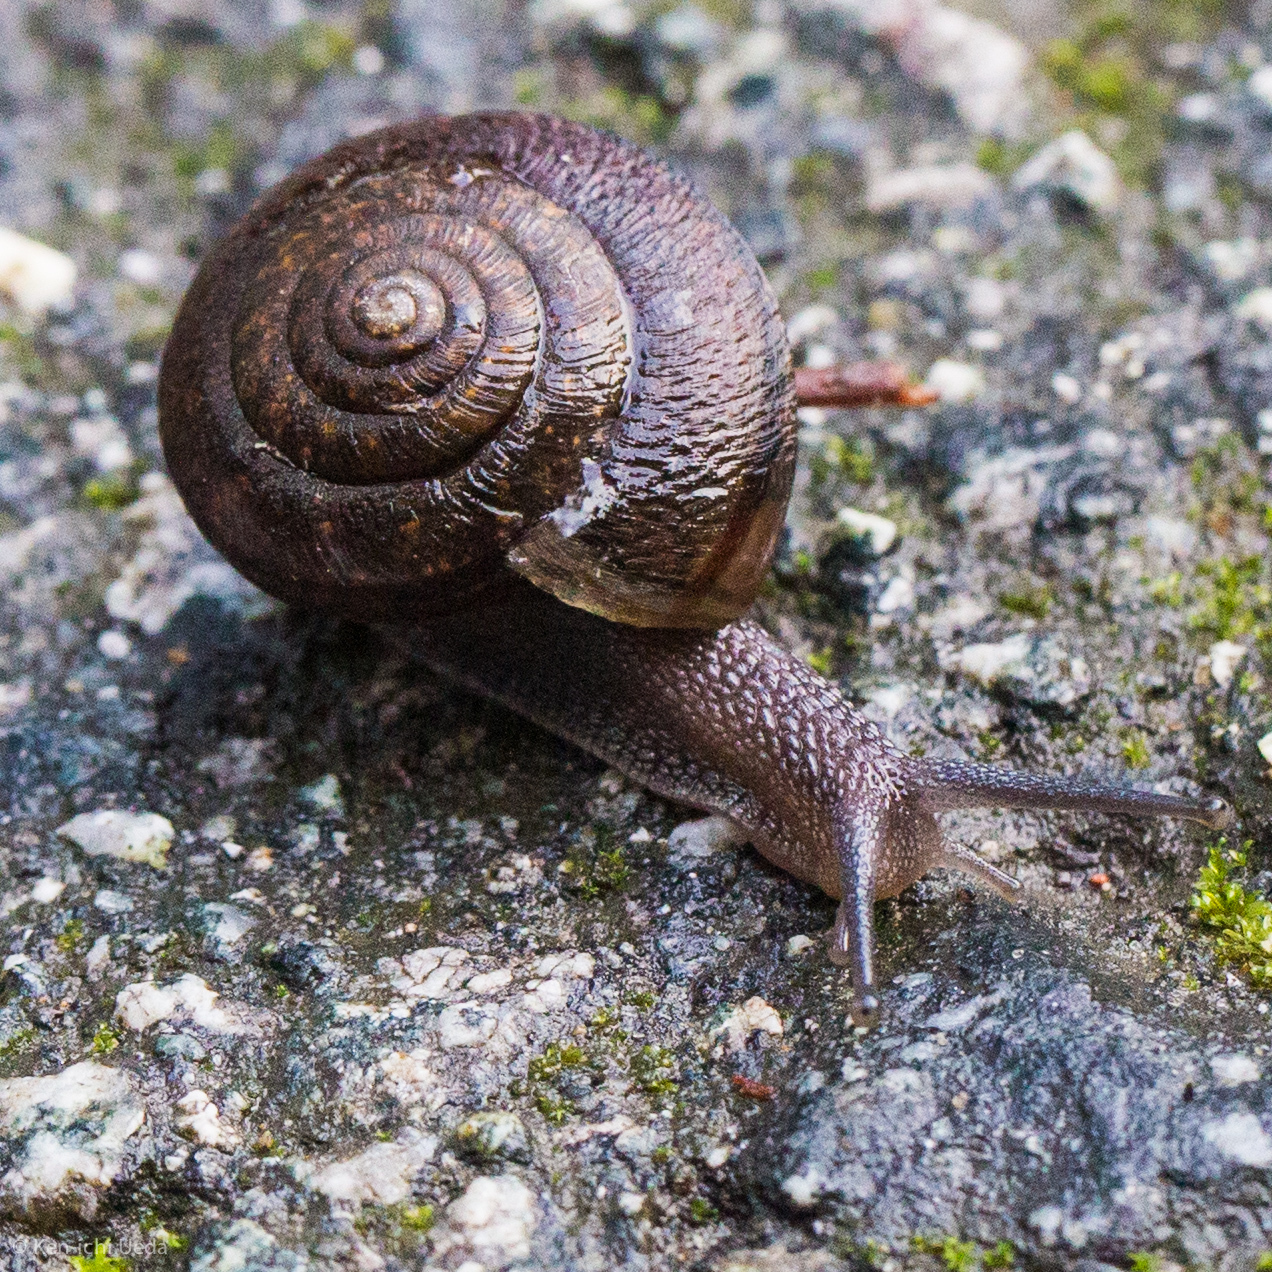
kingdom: Animalia
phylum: Mollusca
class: Gastropoda
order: Stylommatophora
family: Xanthonychidae
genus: Helminthoglypta
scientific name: Helminthoglypta arrosa
